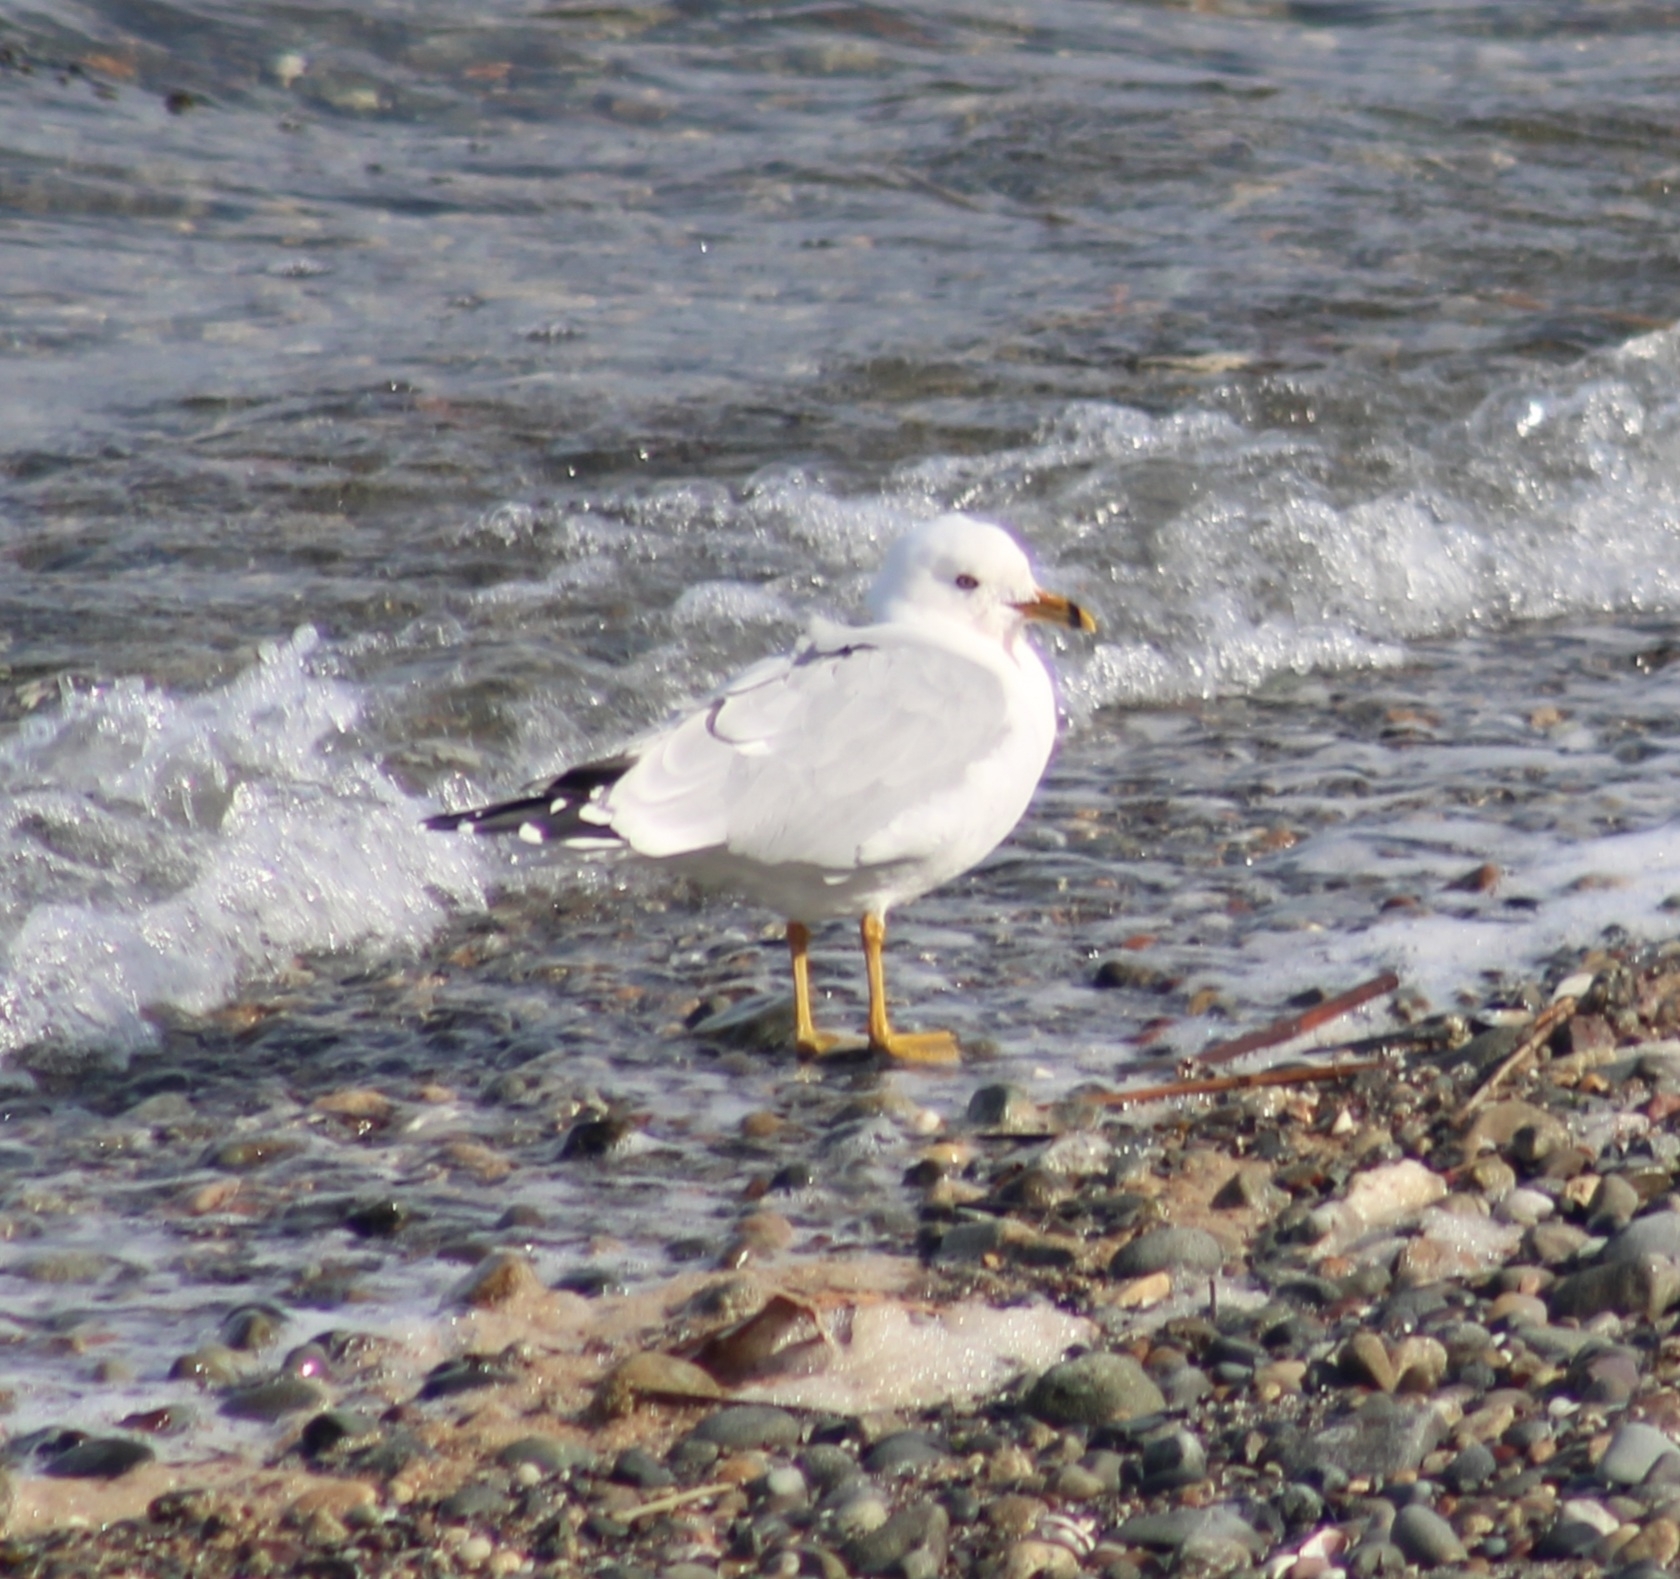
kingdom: Animalia
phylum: Chordata
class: Aves
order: Charadriiformes
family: Laridae
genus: Larus
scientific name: Larus delawarensis
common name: Ring-billed gull
